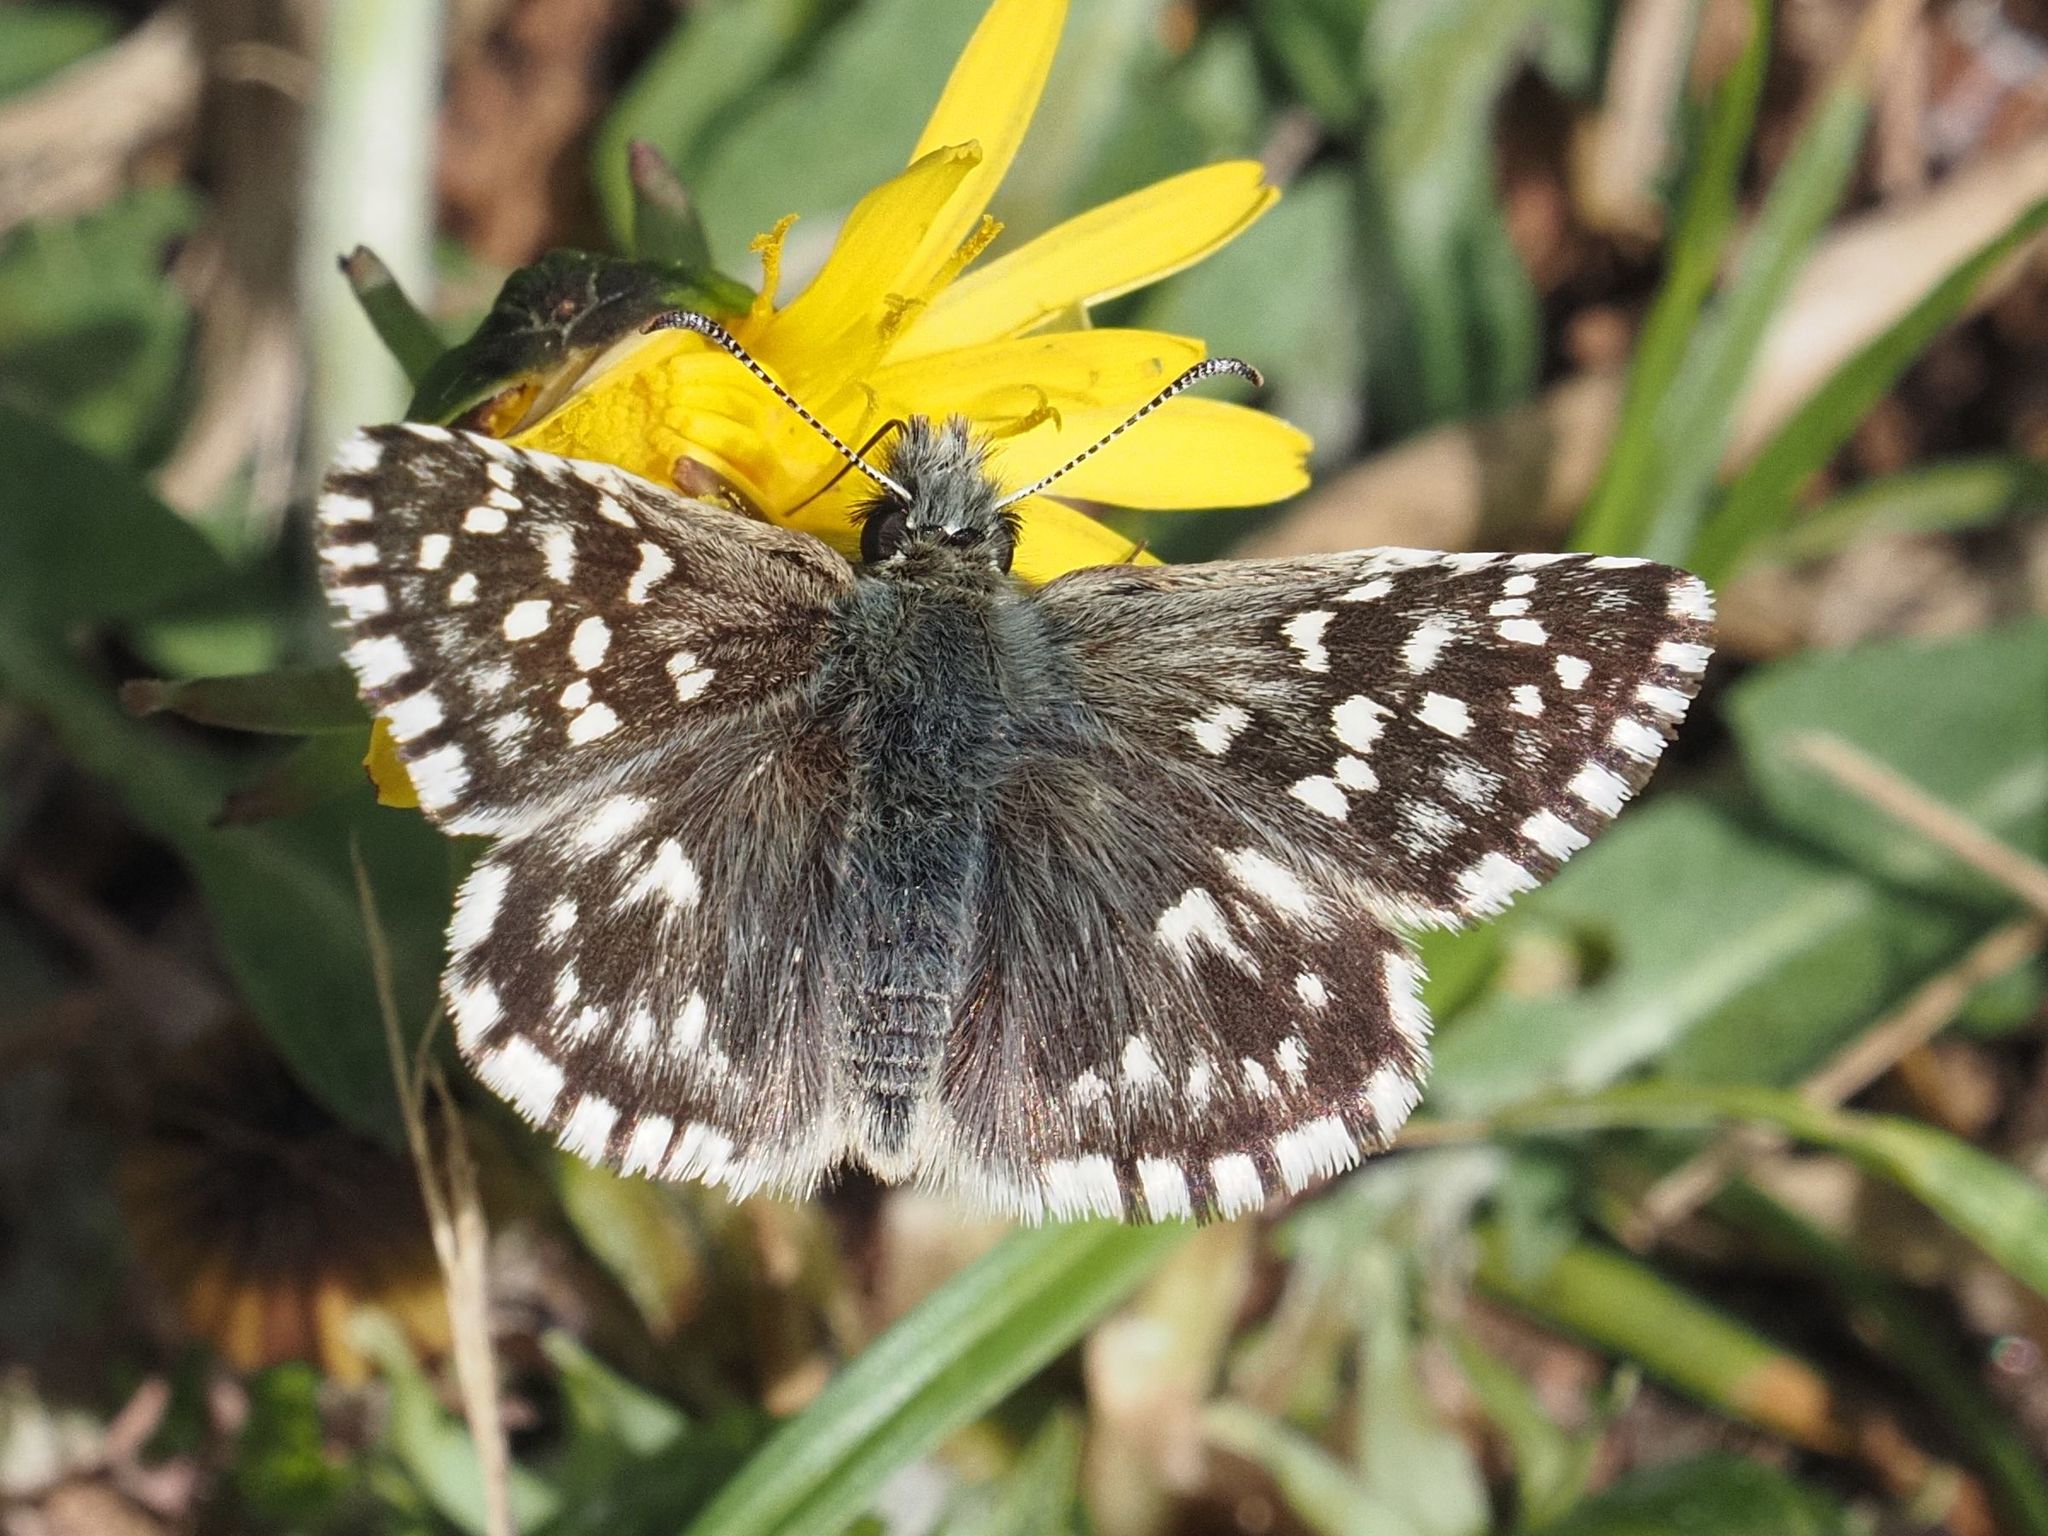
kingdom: Animalia
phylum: Arthropoda
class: Insecta
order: Lepidoptera
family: Hesperiidae
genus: Pyrgus
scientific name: Pyrgus malvae
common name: Grizzled skipper
